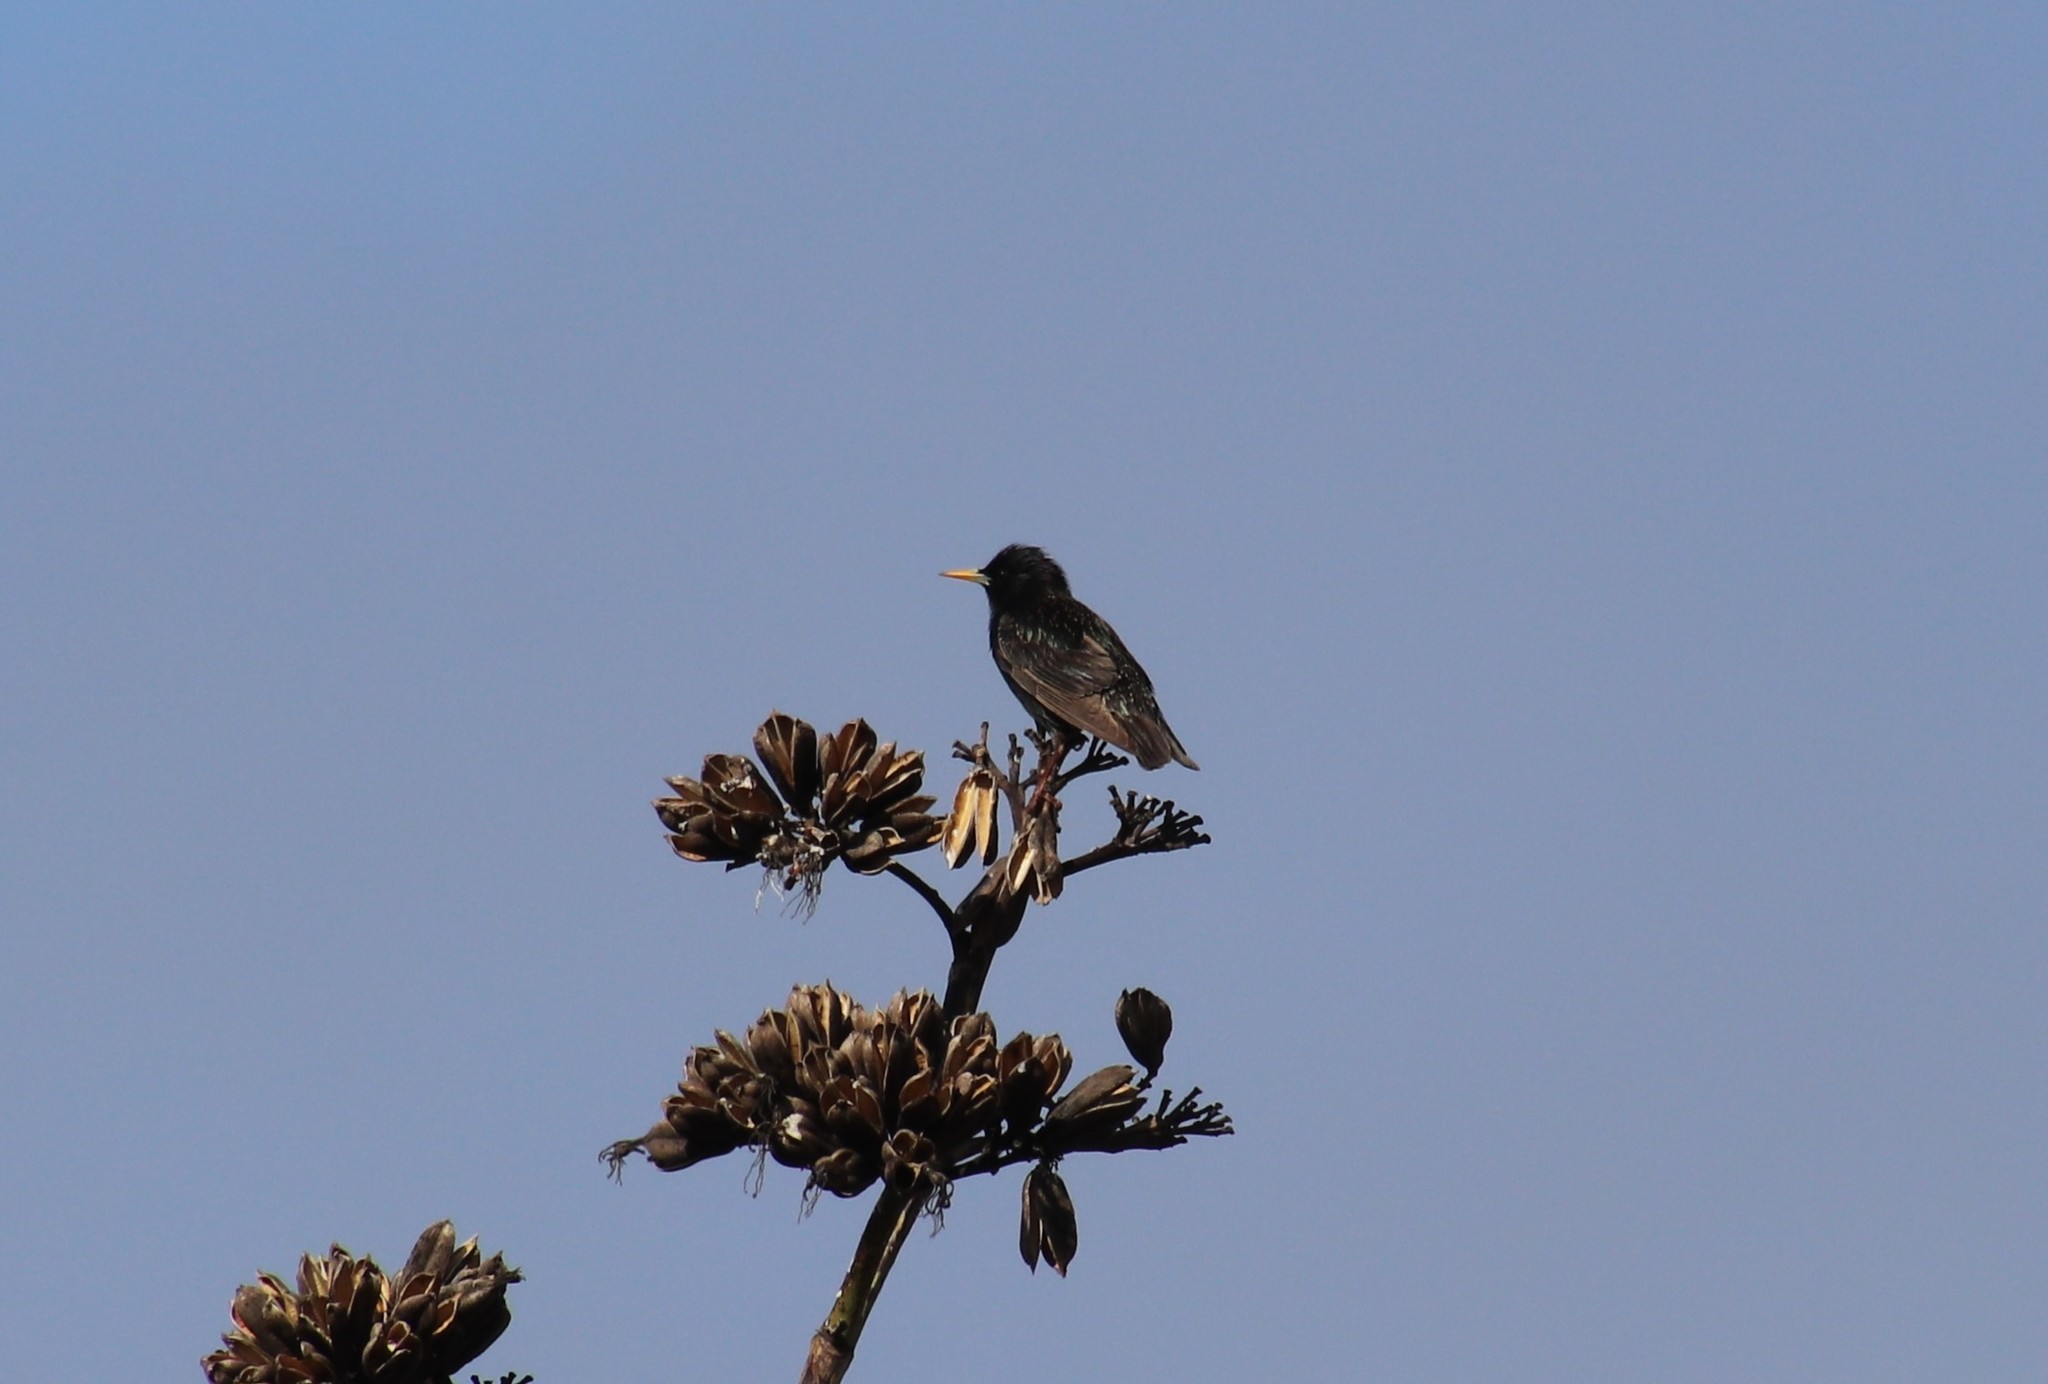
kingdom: Animalia
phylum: Chordata
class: Aves
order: Passeriformes
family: Sturnidae
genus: Sturnus
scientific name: Sturnus vulgaris
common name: Common starling
